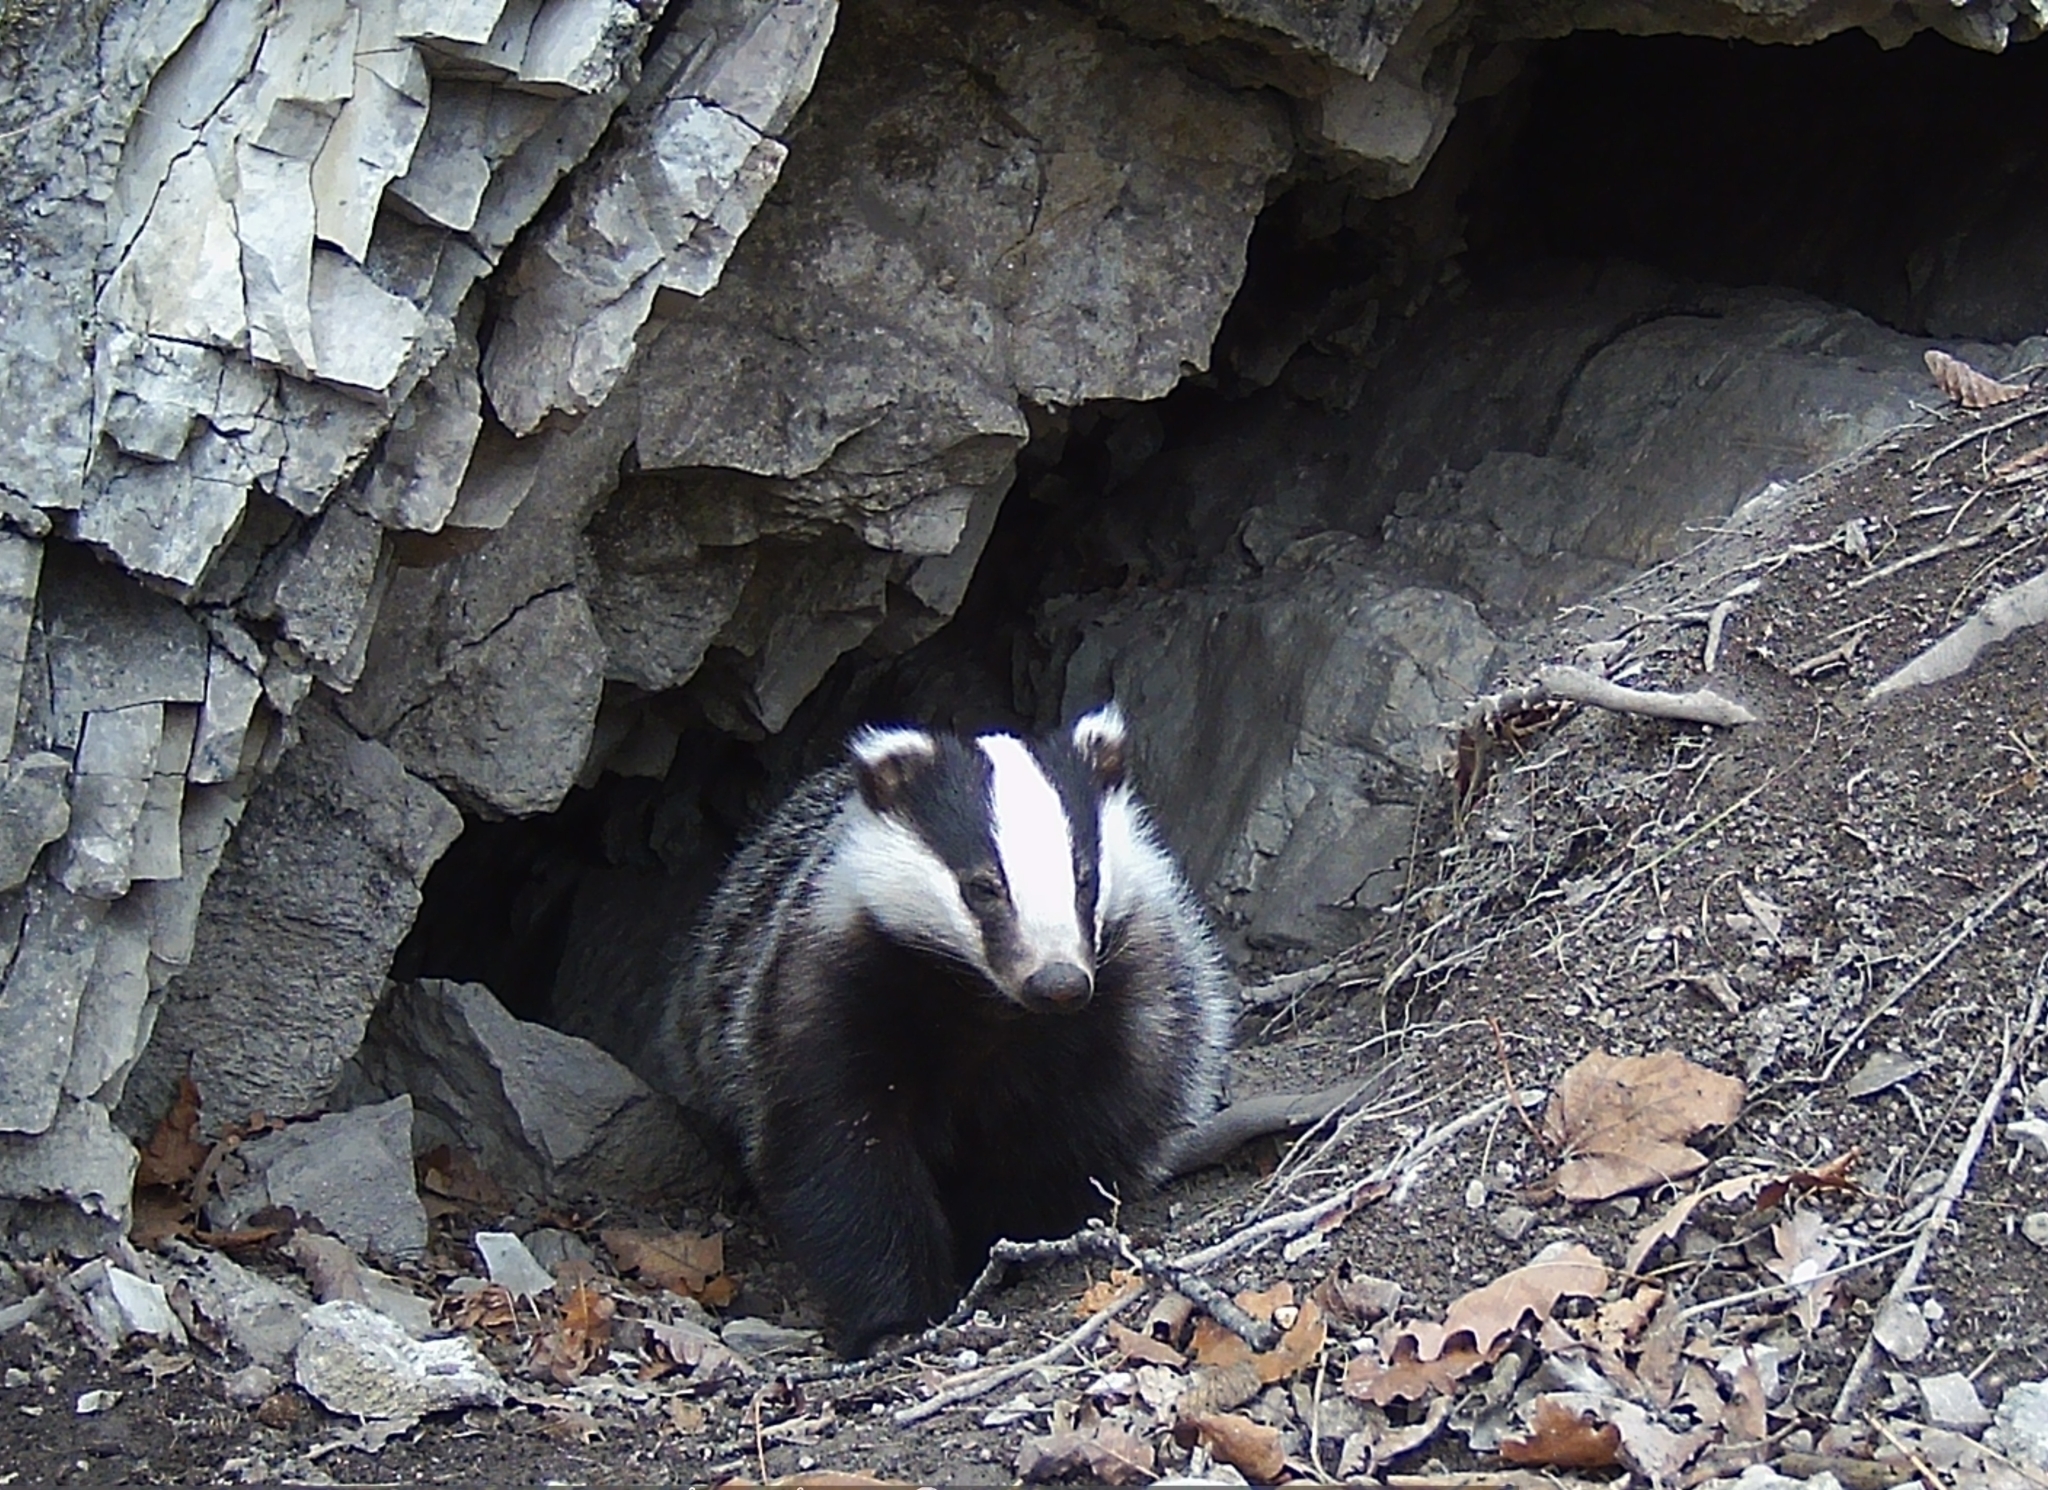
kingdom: Animalia
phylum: Chordata
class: Mammalia
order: Carnivora
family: Mustelidae
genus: Meles
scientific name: Meles
